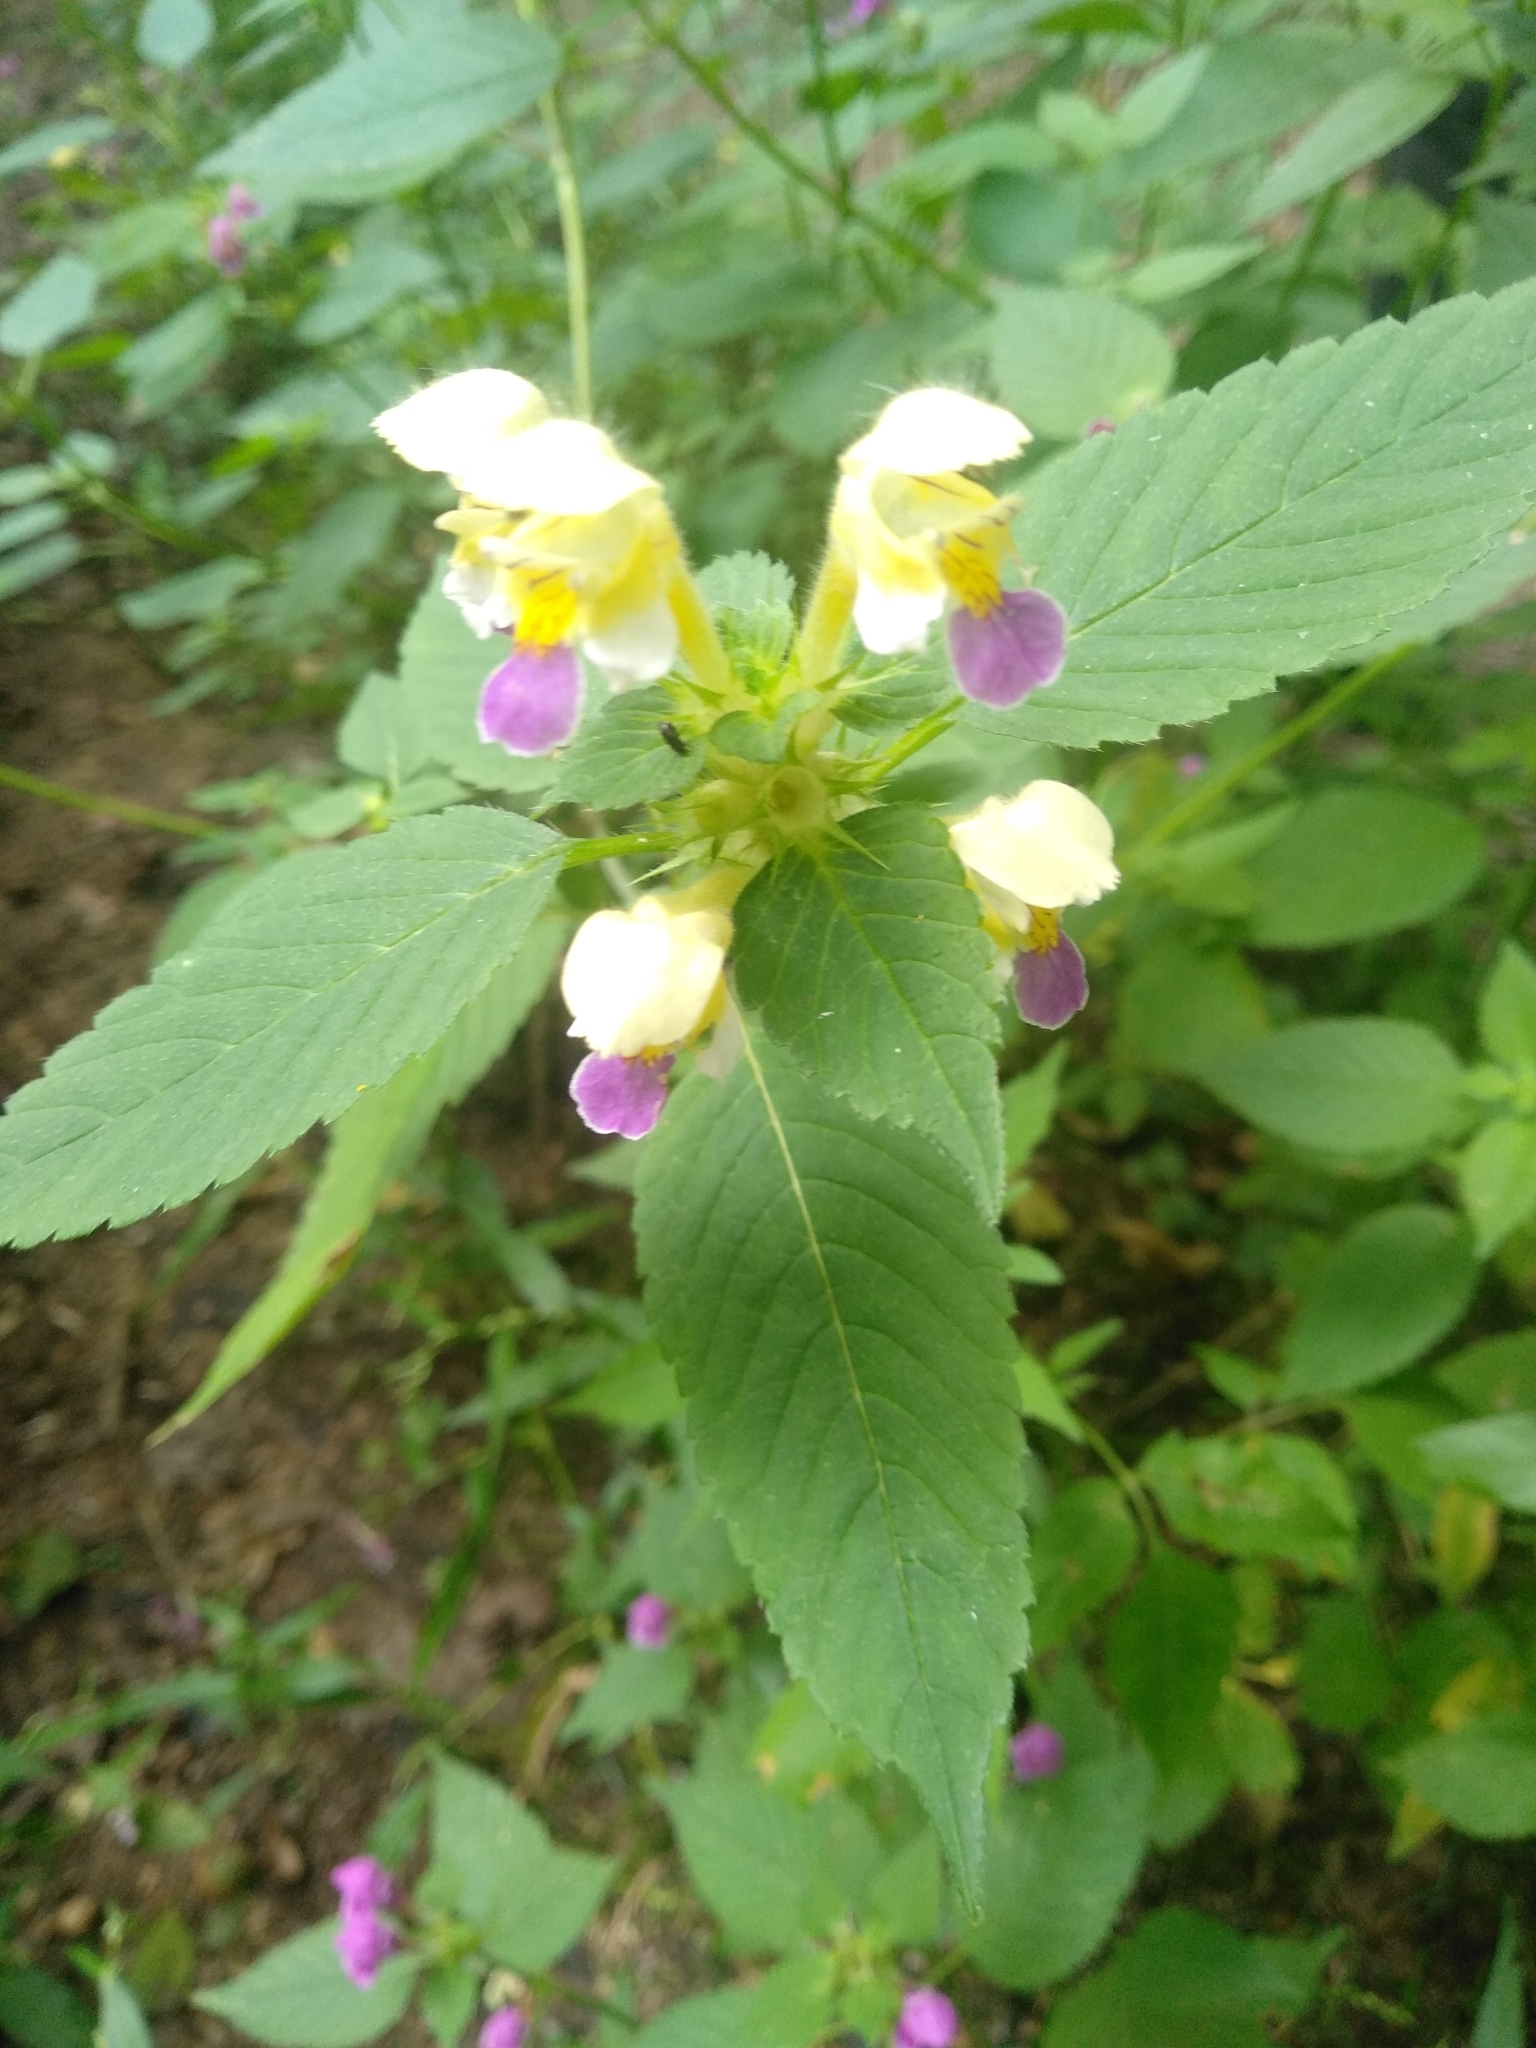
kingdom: Plantae
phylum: Tracheophyta
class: Magnoliopsida
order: Lamiales
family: Lamiaceae
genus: Galeopsis
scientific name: Galeopsis speciosa
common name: Large-flowered hemp-nettle
